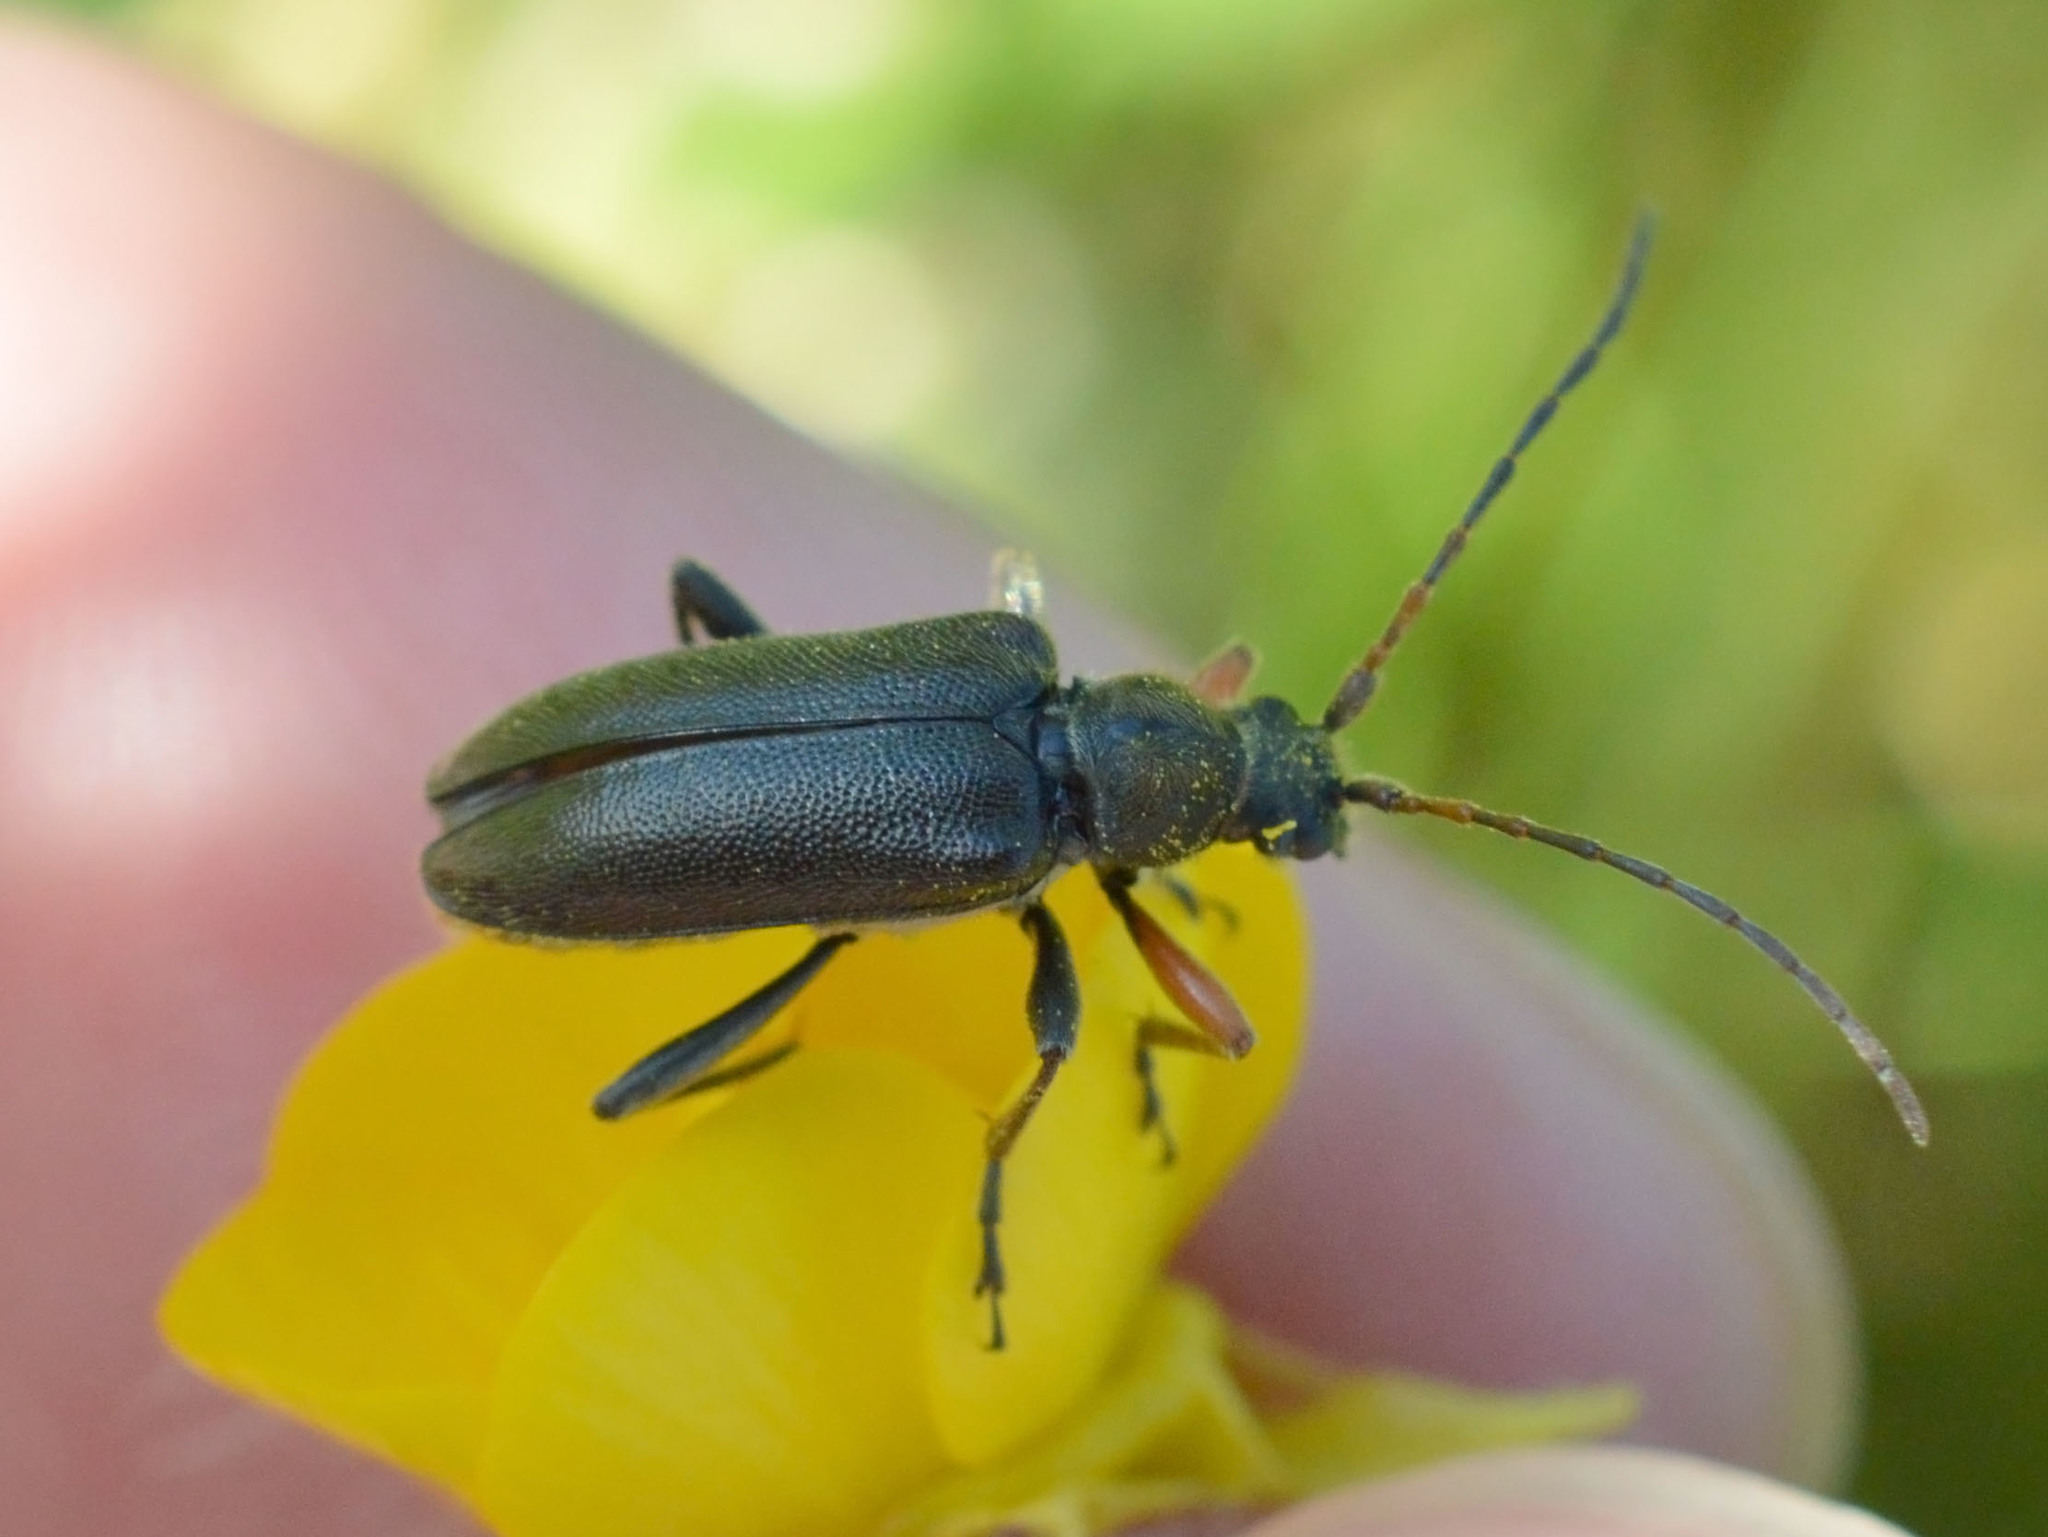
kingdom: Animalia
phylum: Arthropoda
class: Insecta
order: Coleoptera
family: Cerambycidae
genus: Cortodera
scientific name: Cortodera flavimana
